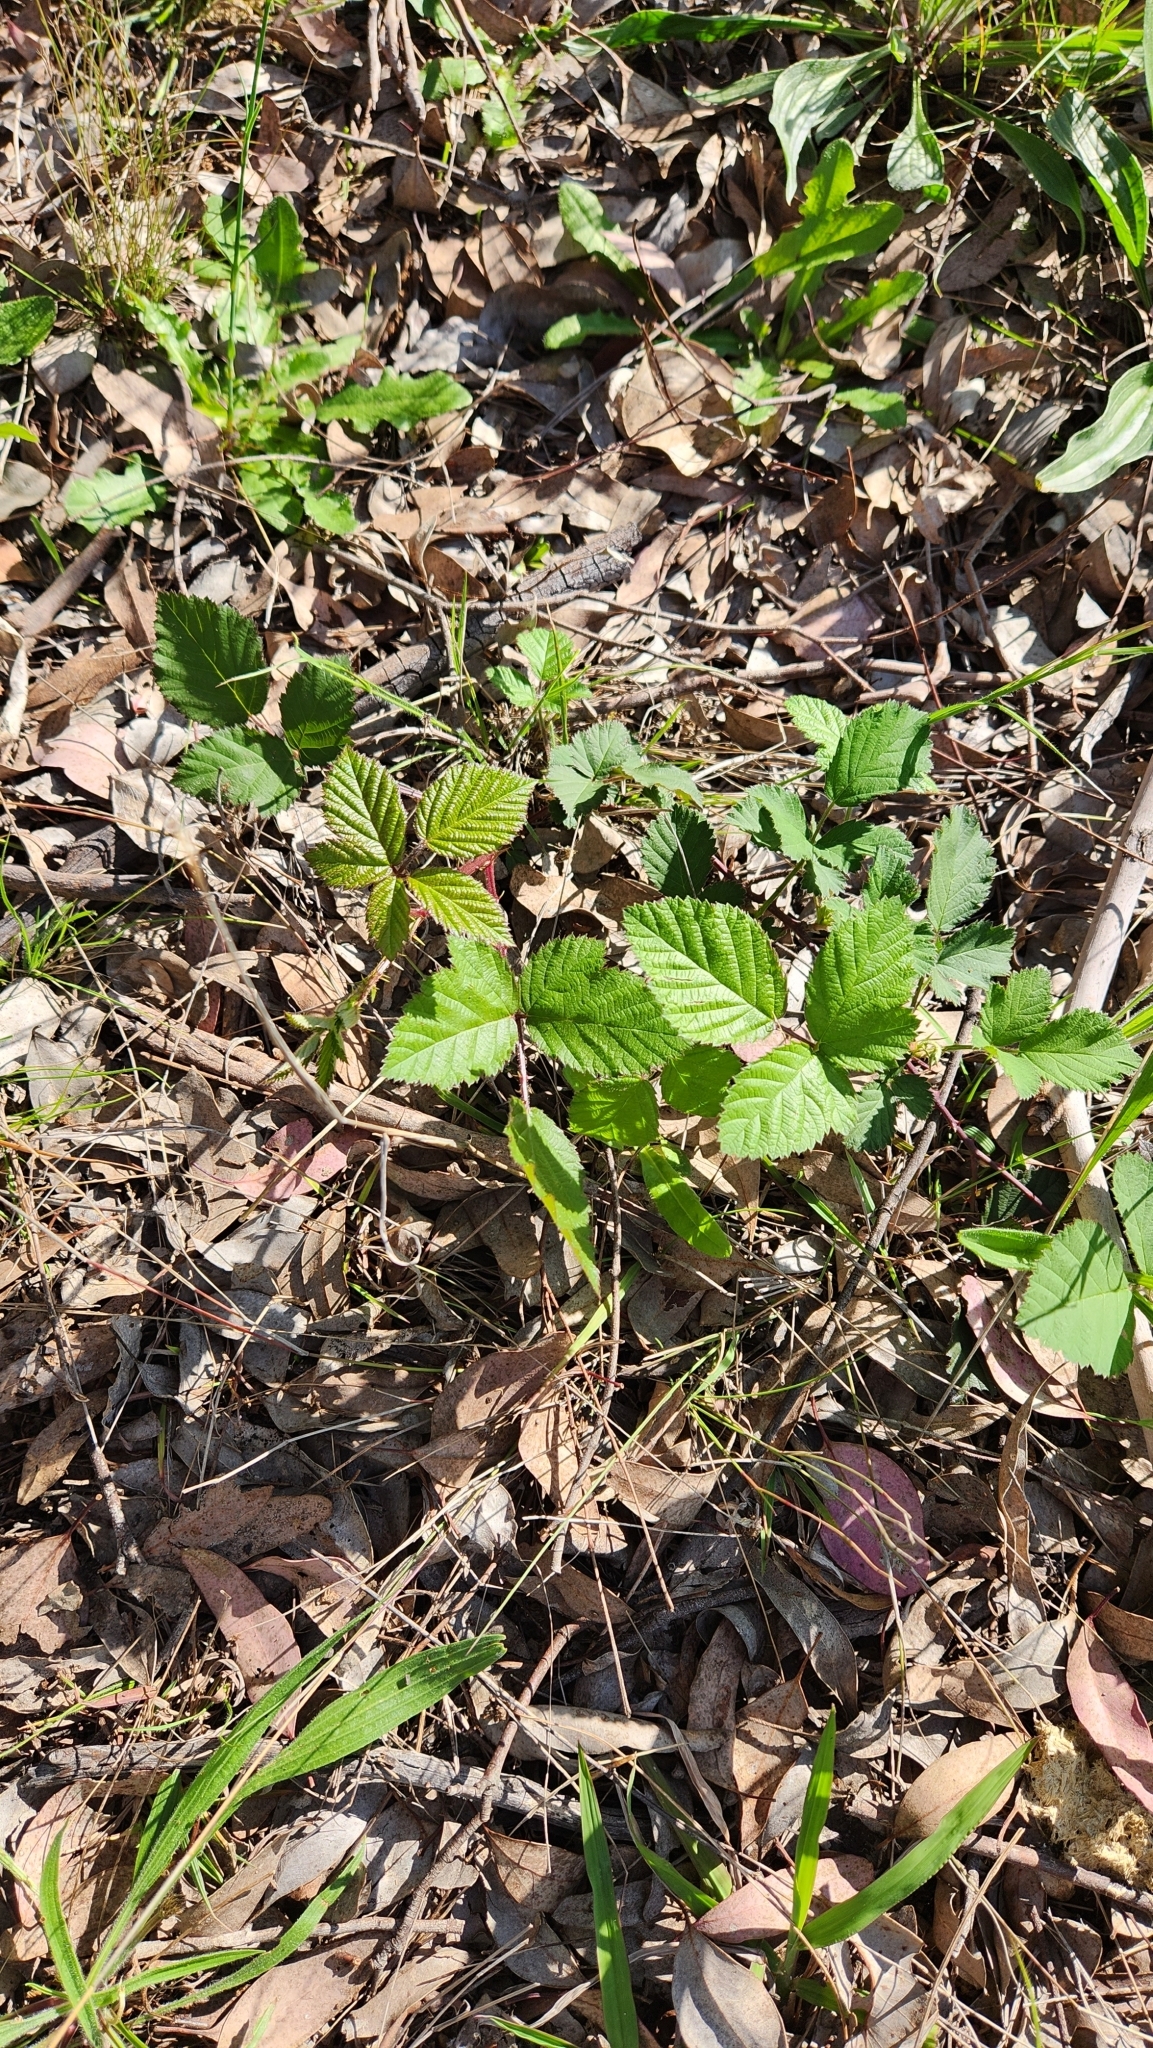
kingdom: Plantae
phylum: Tracheophyta
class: Magnoliopsida
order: Rosales
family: Rosaceae
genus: Rubus
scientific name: Rubus
